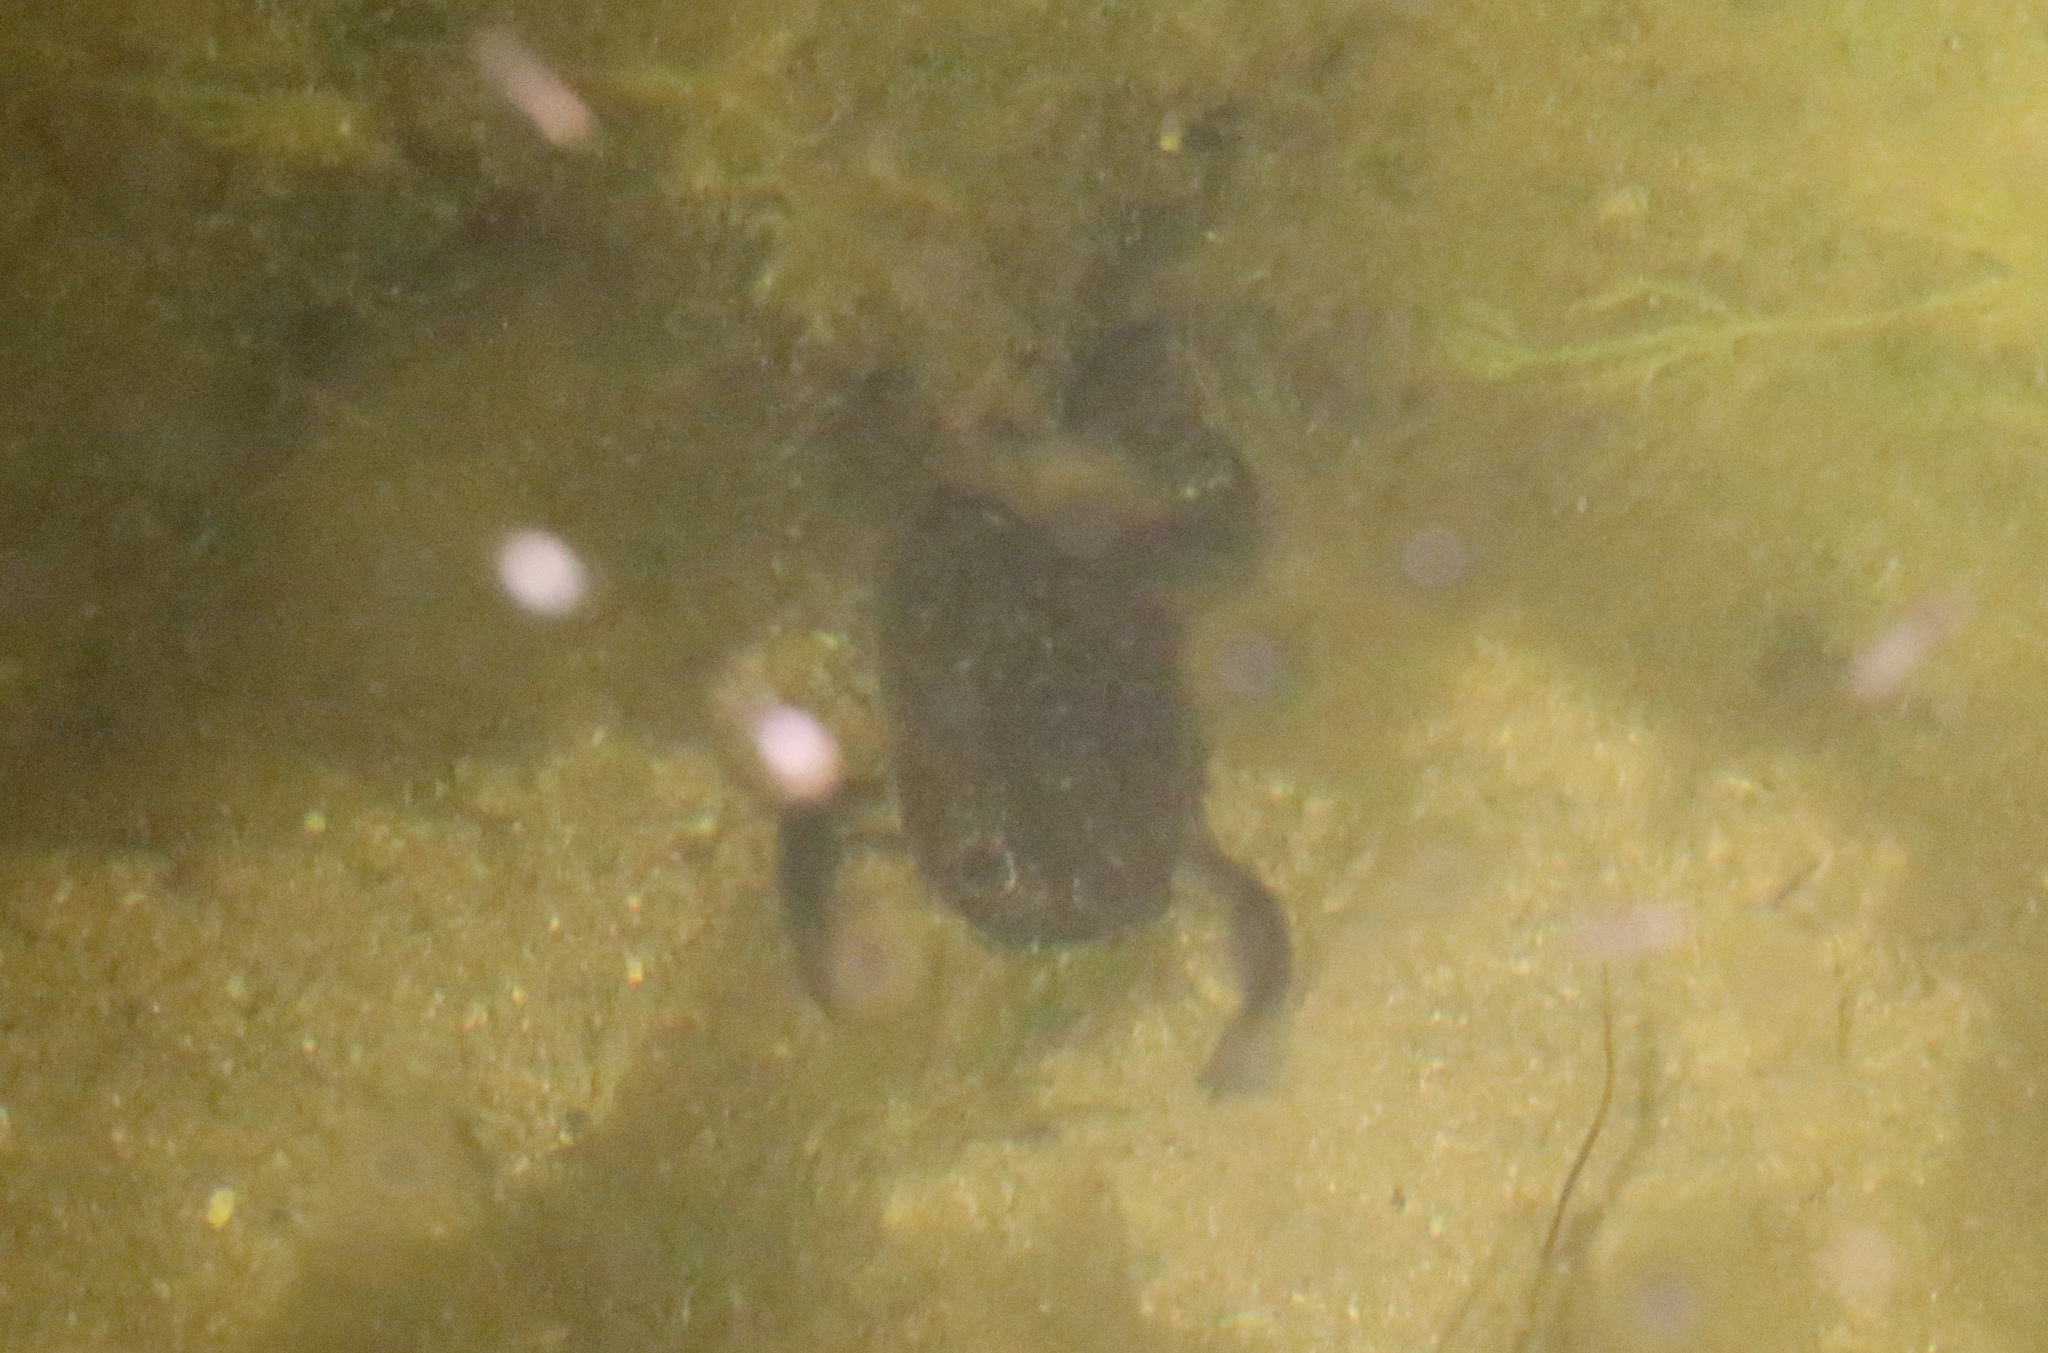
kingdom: Animalia
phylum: Chordata
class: Amphibia
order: Anura
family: Pipidae
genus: Xenopus
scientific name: Xenopus laevis
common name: African clawed frog
